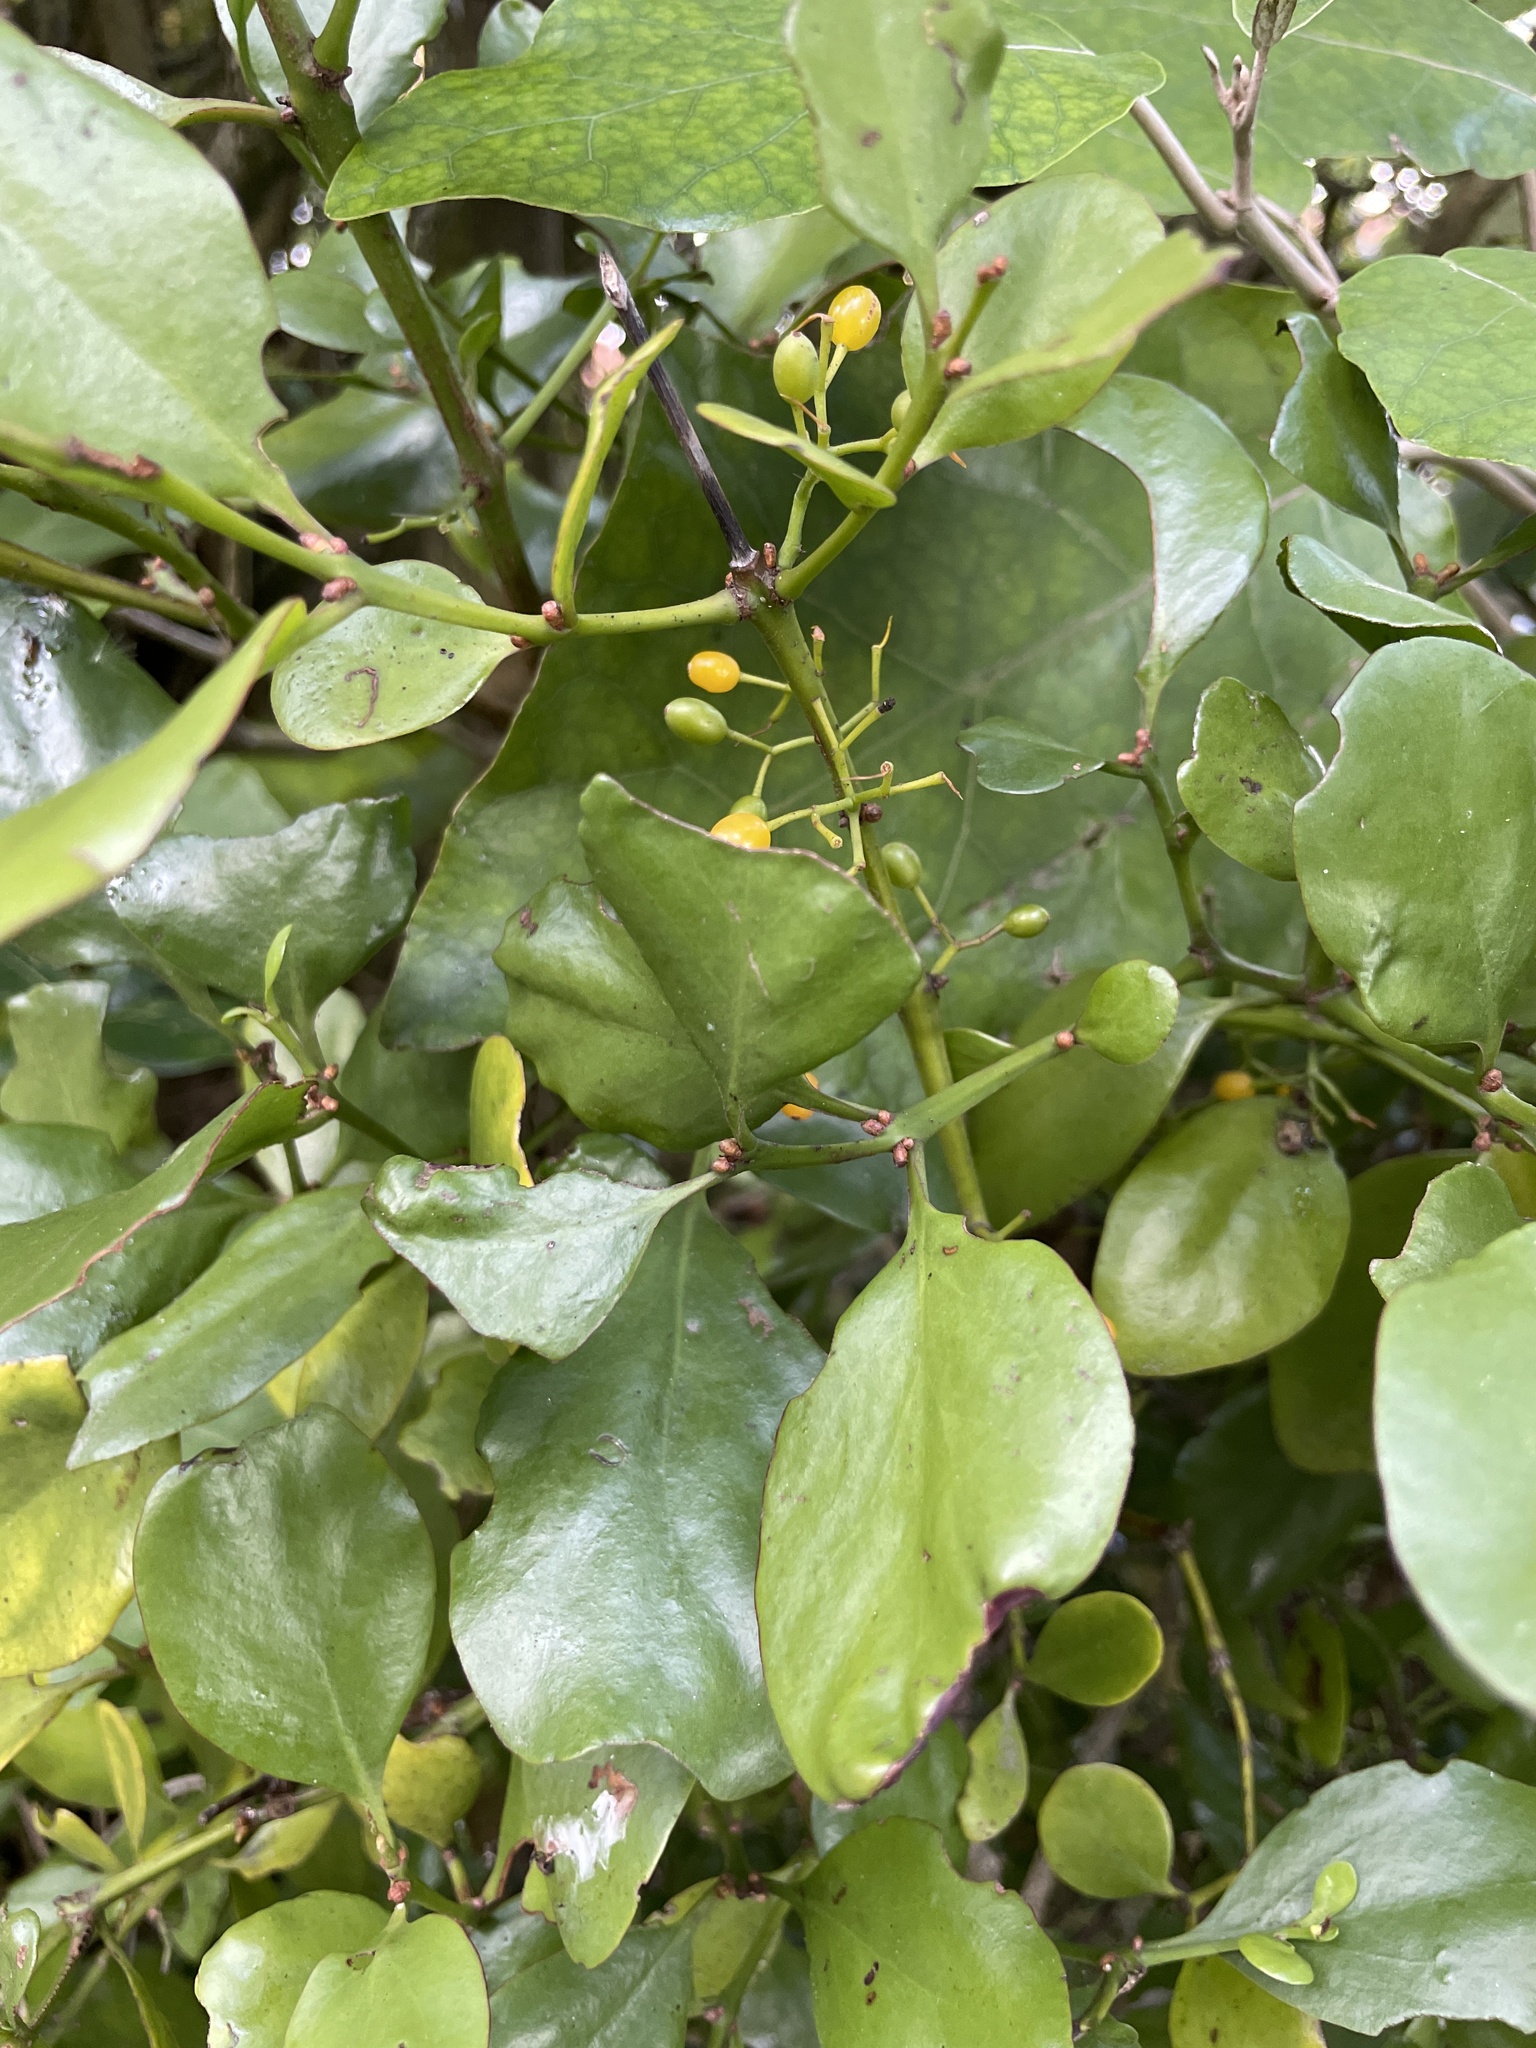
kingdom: Plantae
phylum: Tracheophyta
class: Magnoliopsida
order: Santalales
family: Loranthaceae
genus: Ileostylus
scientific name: Ileostylus micranthus
